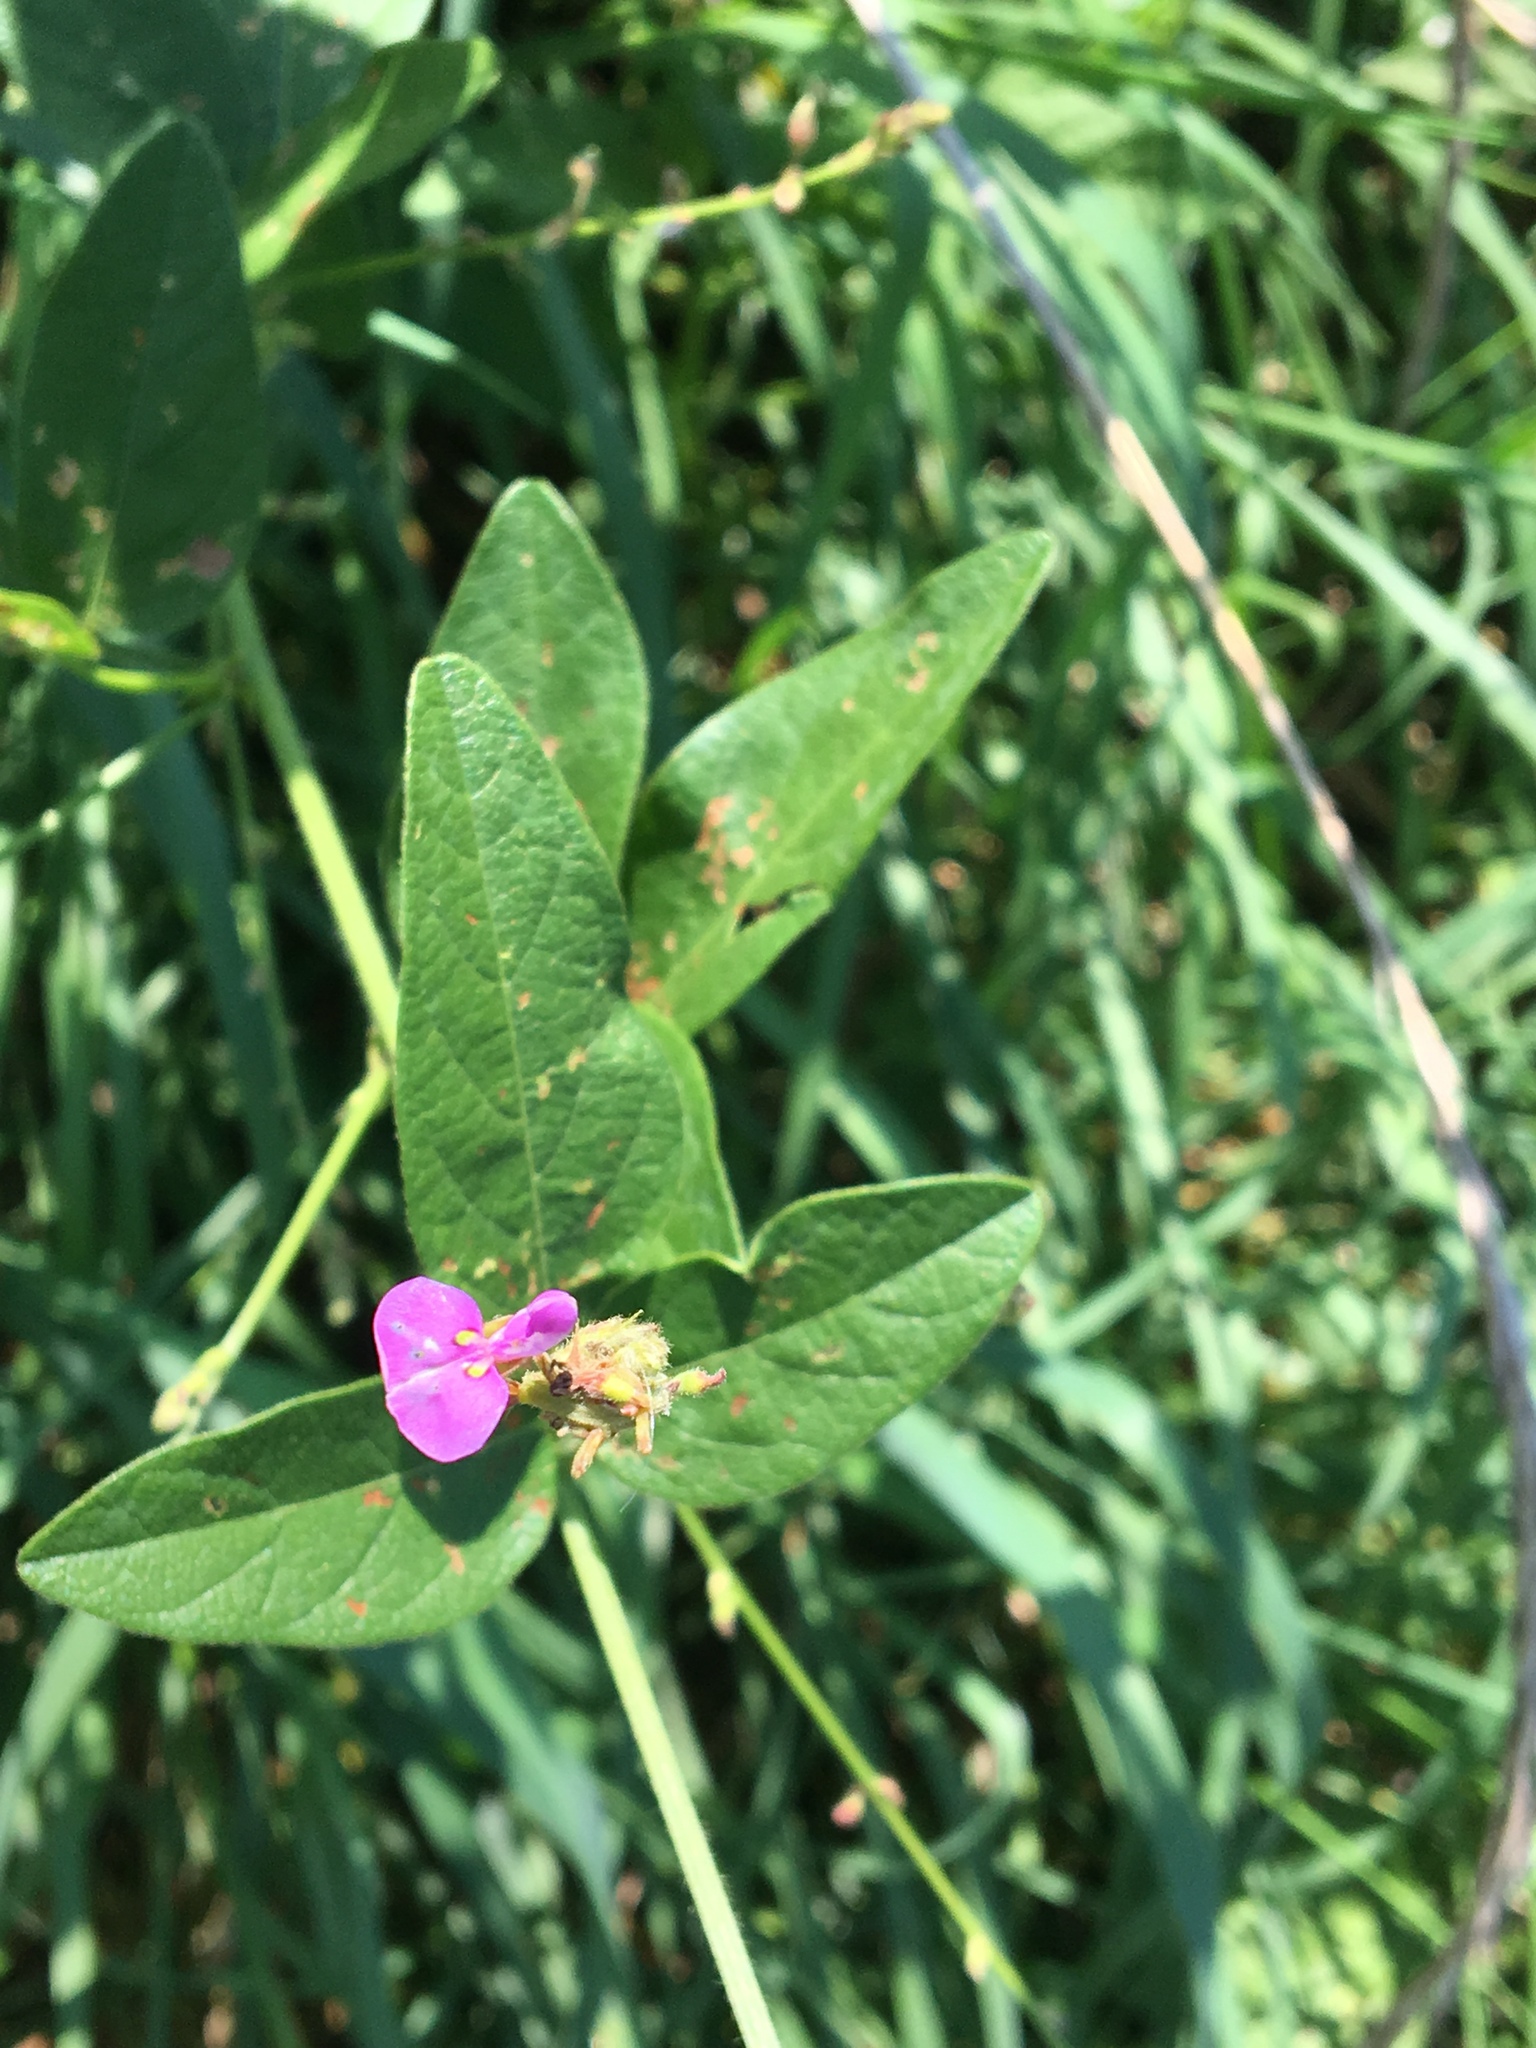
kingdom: Plantae
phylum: Tracheophyta
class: Magnoliopsida
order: Fabales
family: Fabaceae
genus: Desmodium
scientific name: Desmodium glabellum
